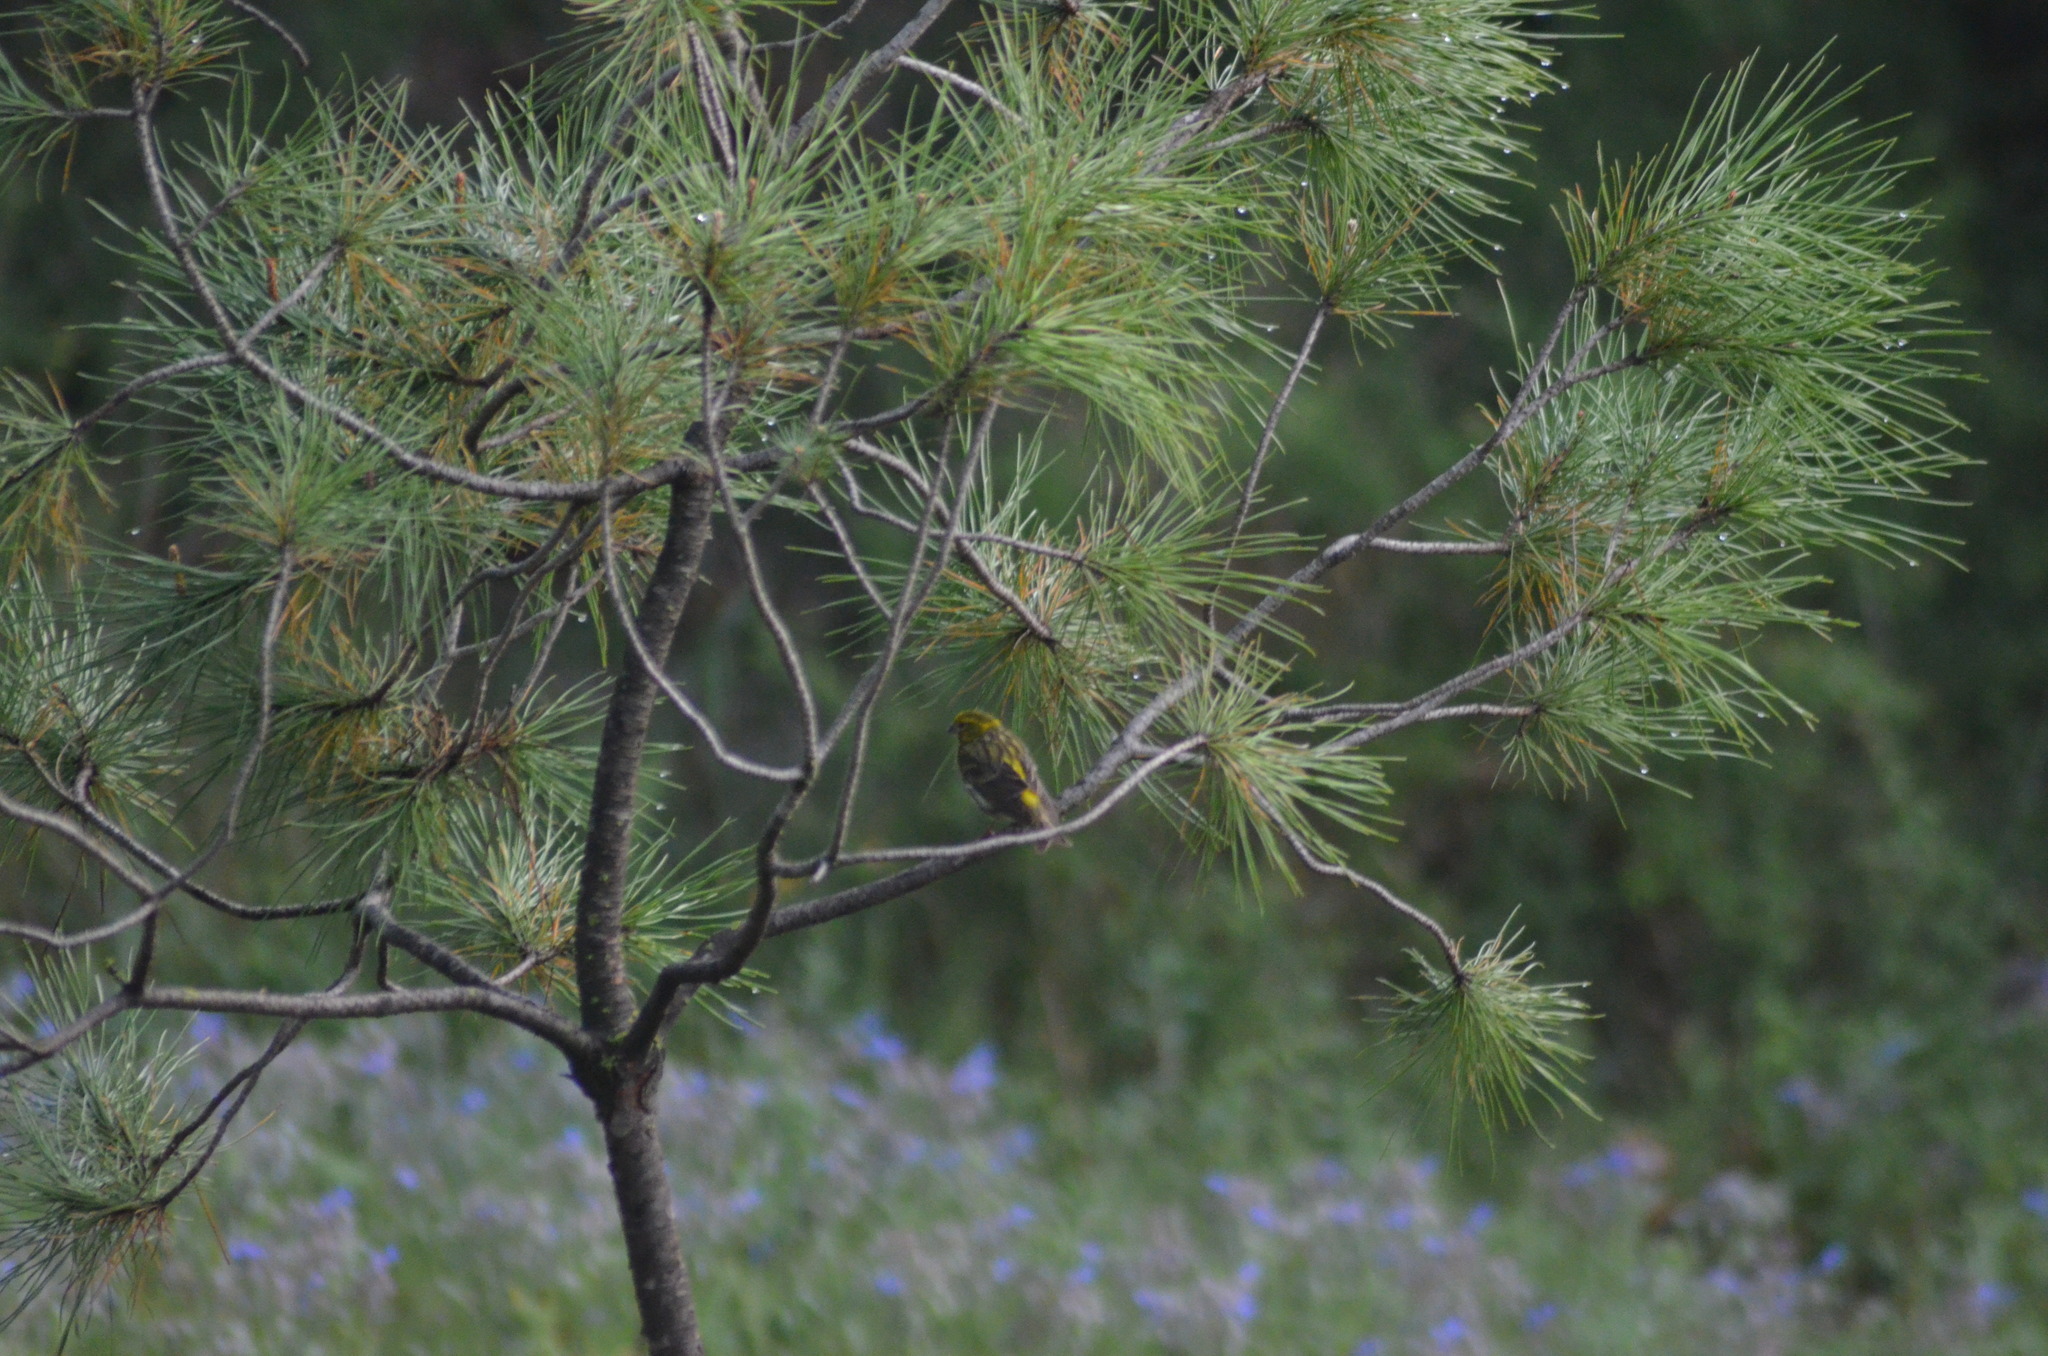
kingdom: Animalia
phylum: Chordata
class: Aves
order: Passeriformes
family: Fringillidae
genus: Serinus
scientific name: Serinus serinus
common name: European serin
